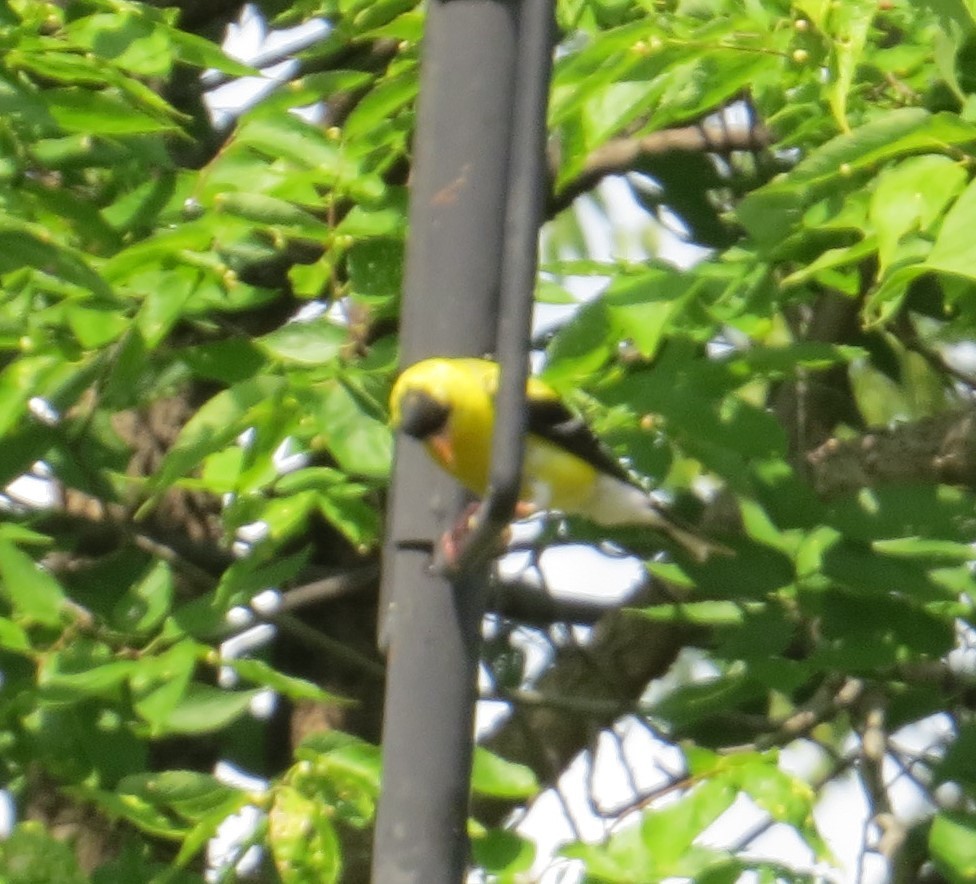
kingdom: Animalia
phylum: Chordata
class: Aves
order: Passeriformes
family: Fringillidae
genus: Spinus
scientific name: Spinus tristis
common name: American goldfinch
